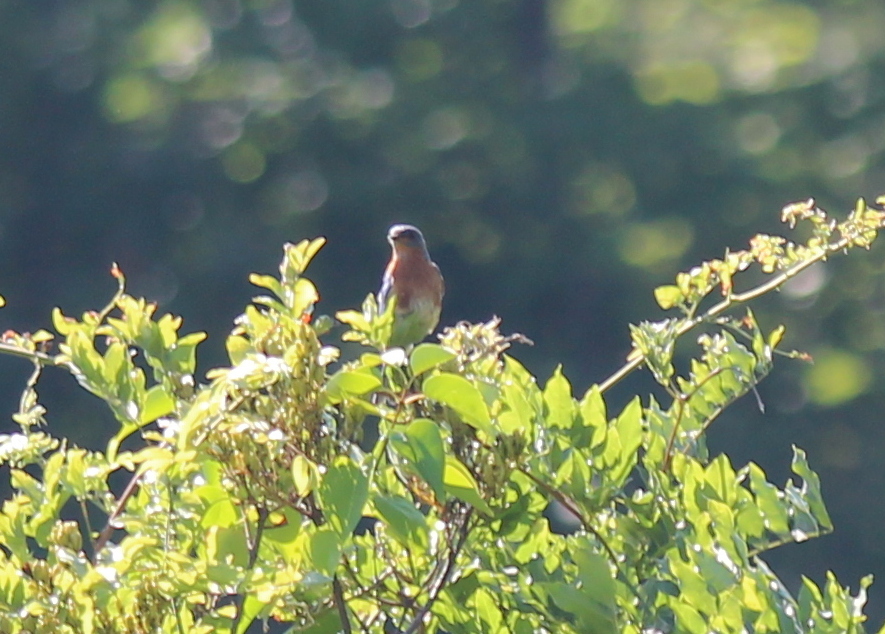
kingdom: Animalia
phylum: Chordata
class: Aves
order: Passeriformes
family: Turdidae
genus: Sialia
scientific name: Sialia sialis
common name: Eastern bluebird
